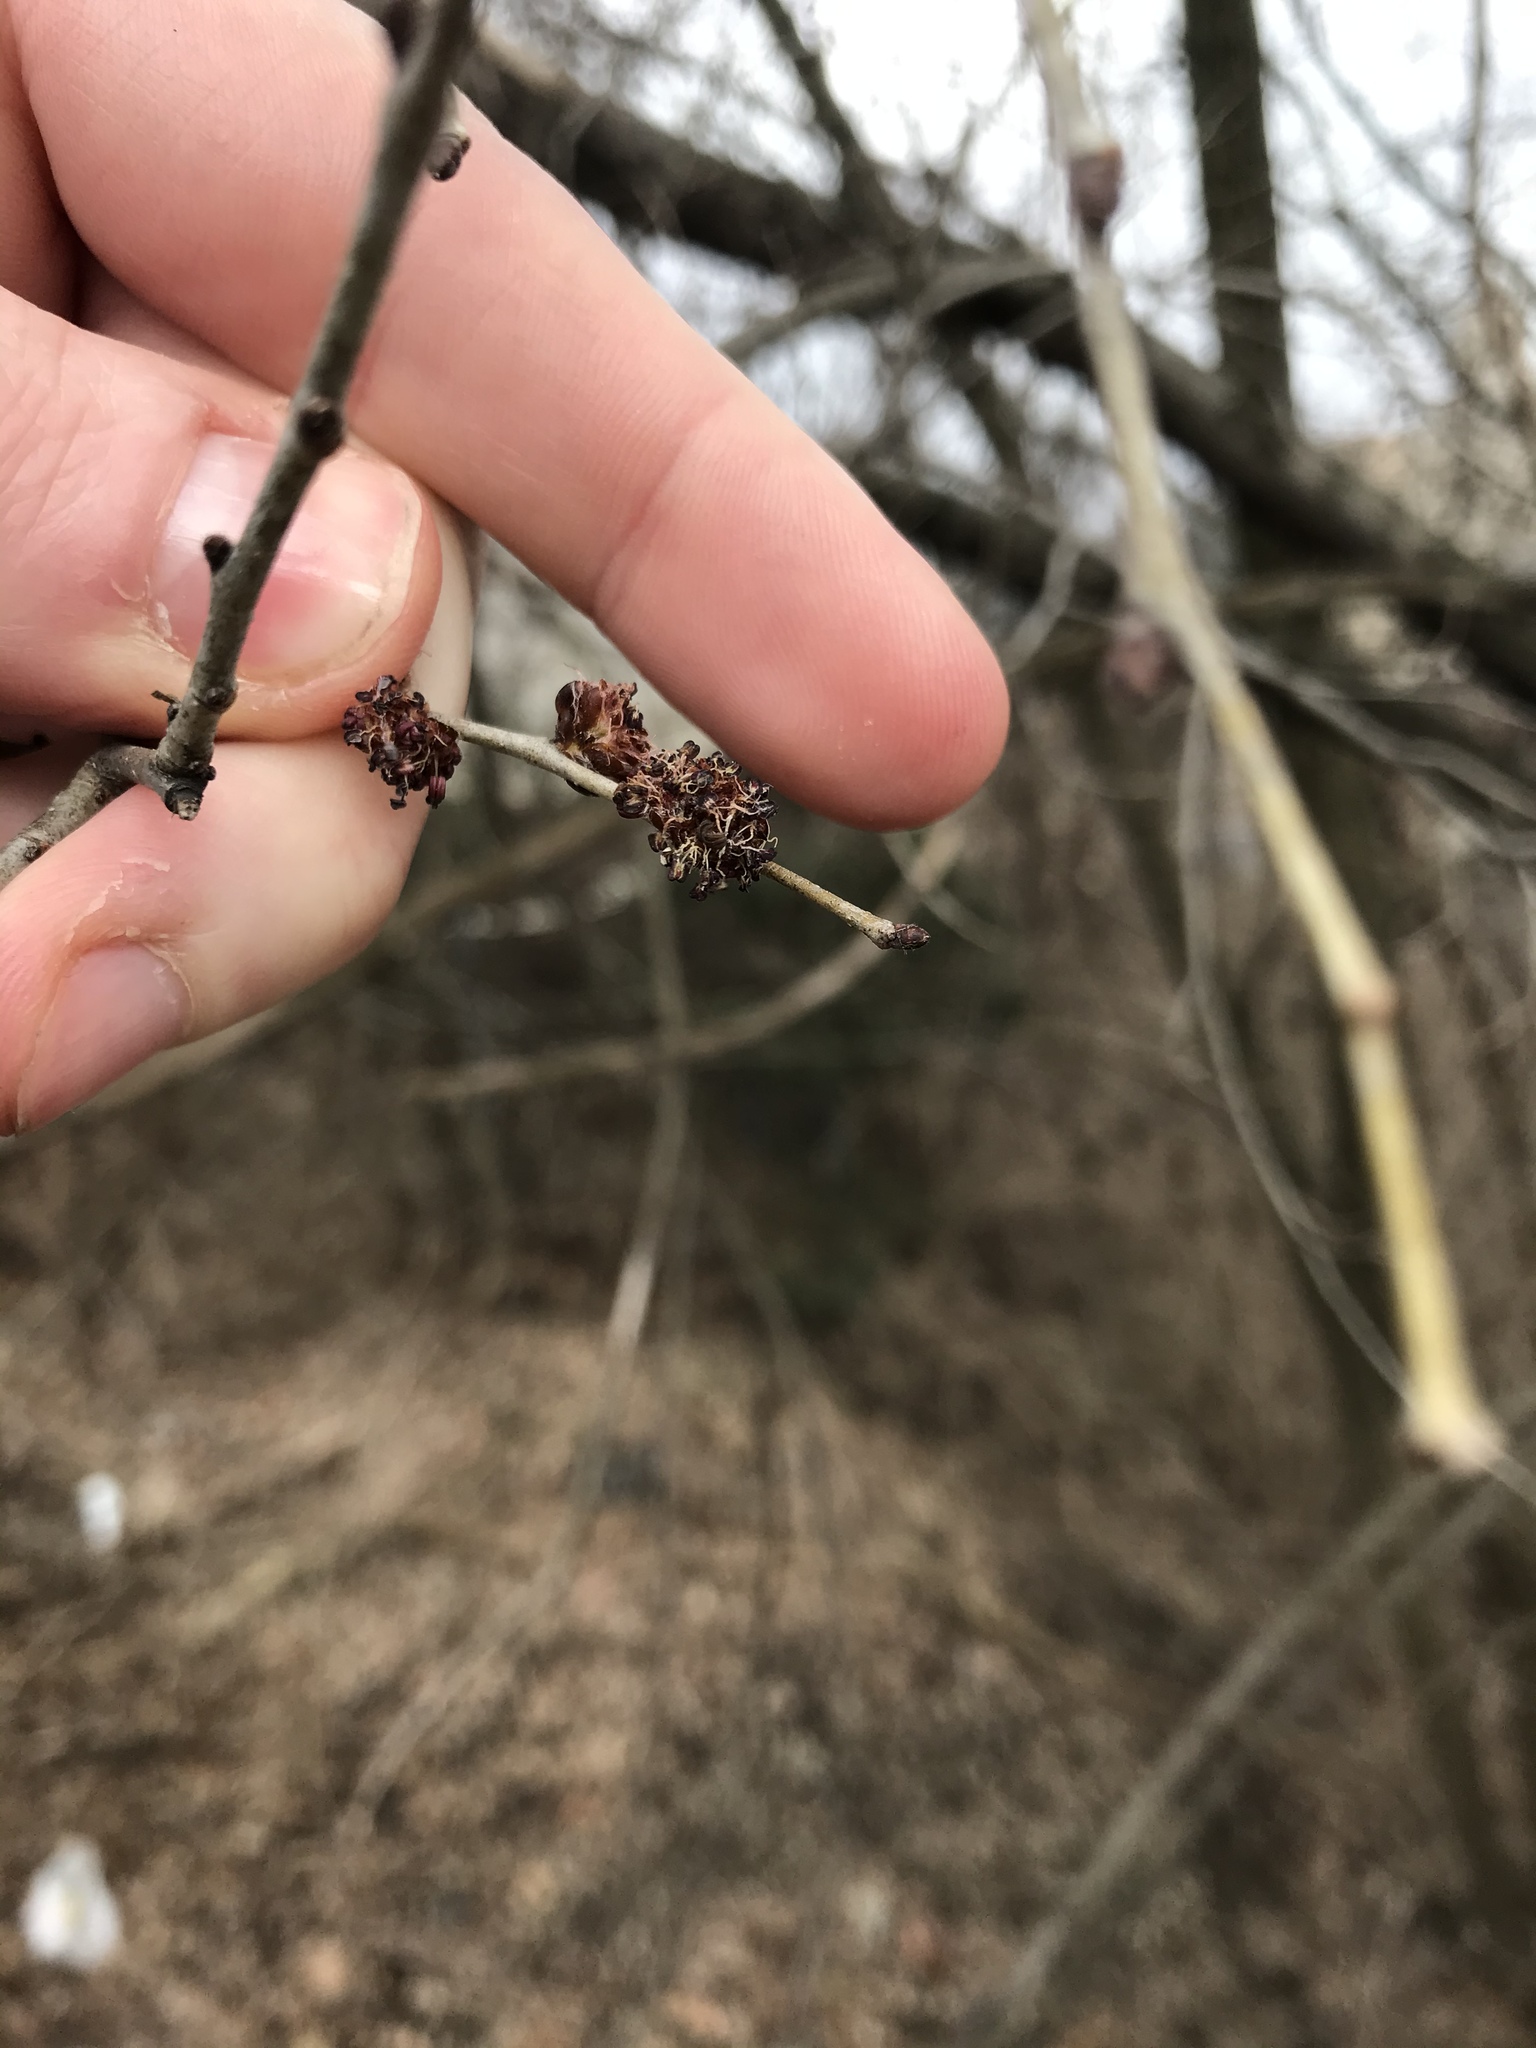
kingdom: Plantae
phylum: Tracheophyta
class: Magnoliopsida
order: Rosales
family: Ulmaceae
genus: Ulmus
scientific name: Ulmus pumila
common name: Siberian elm
